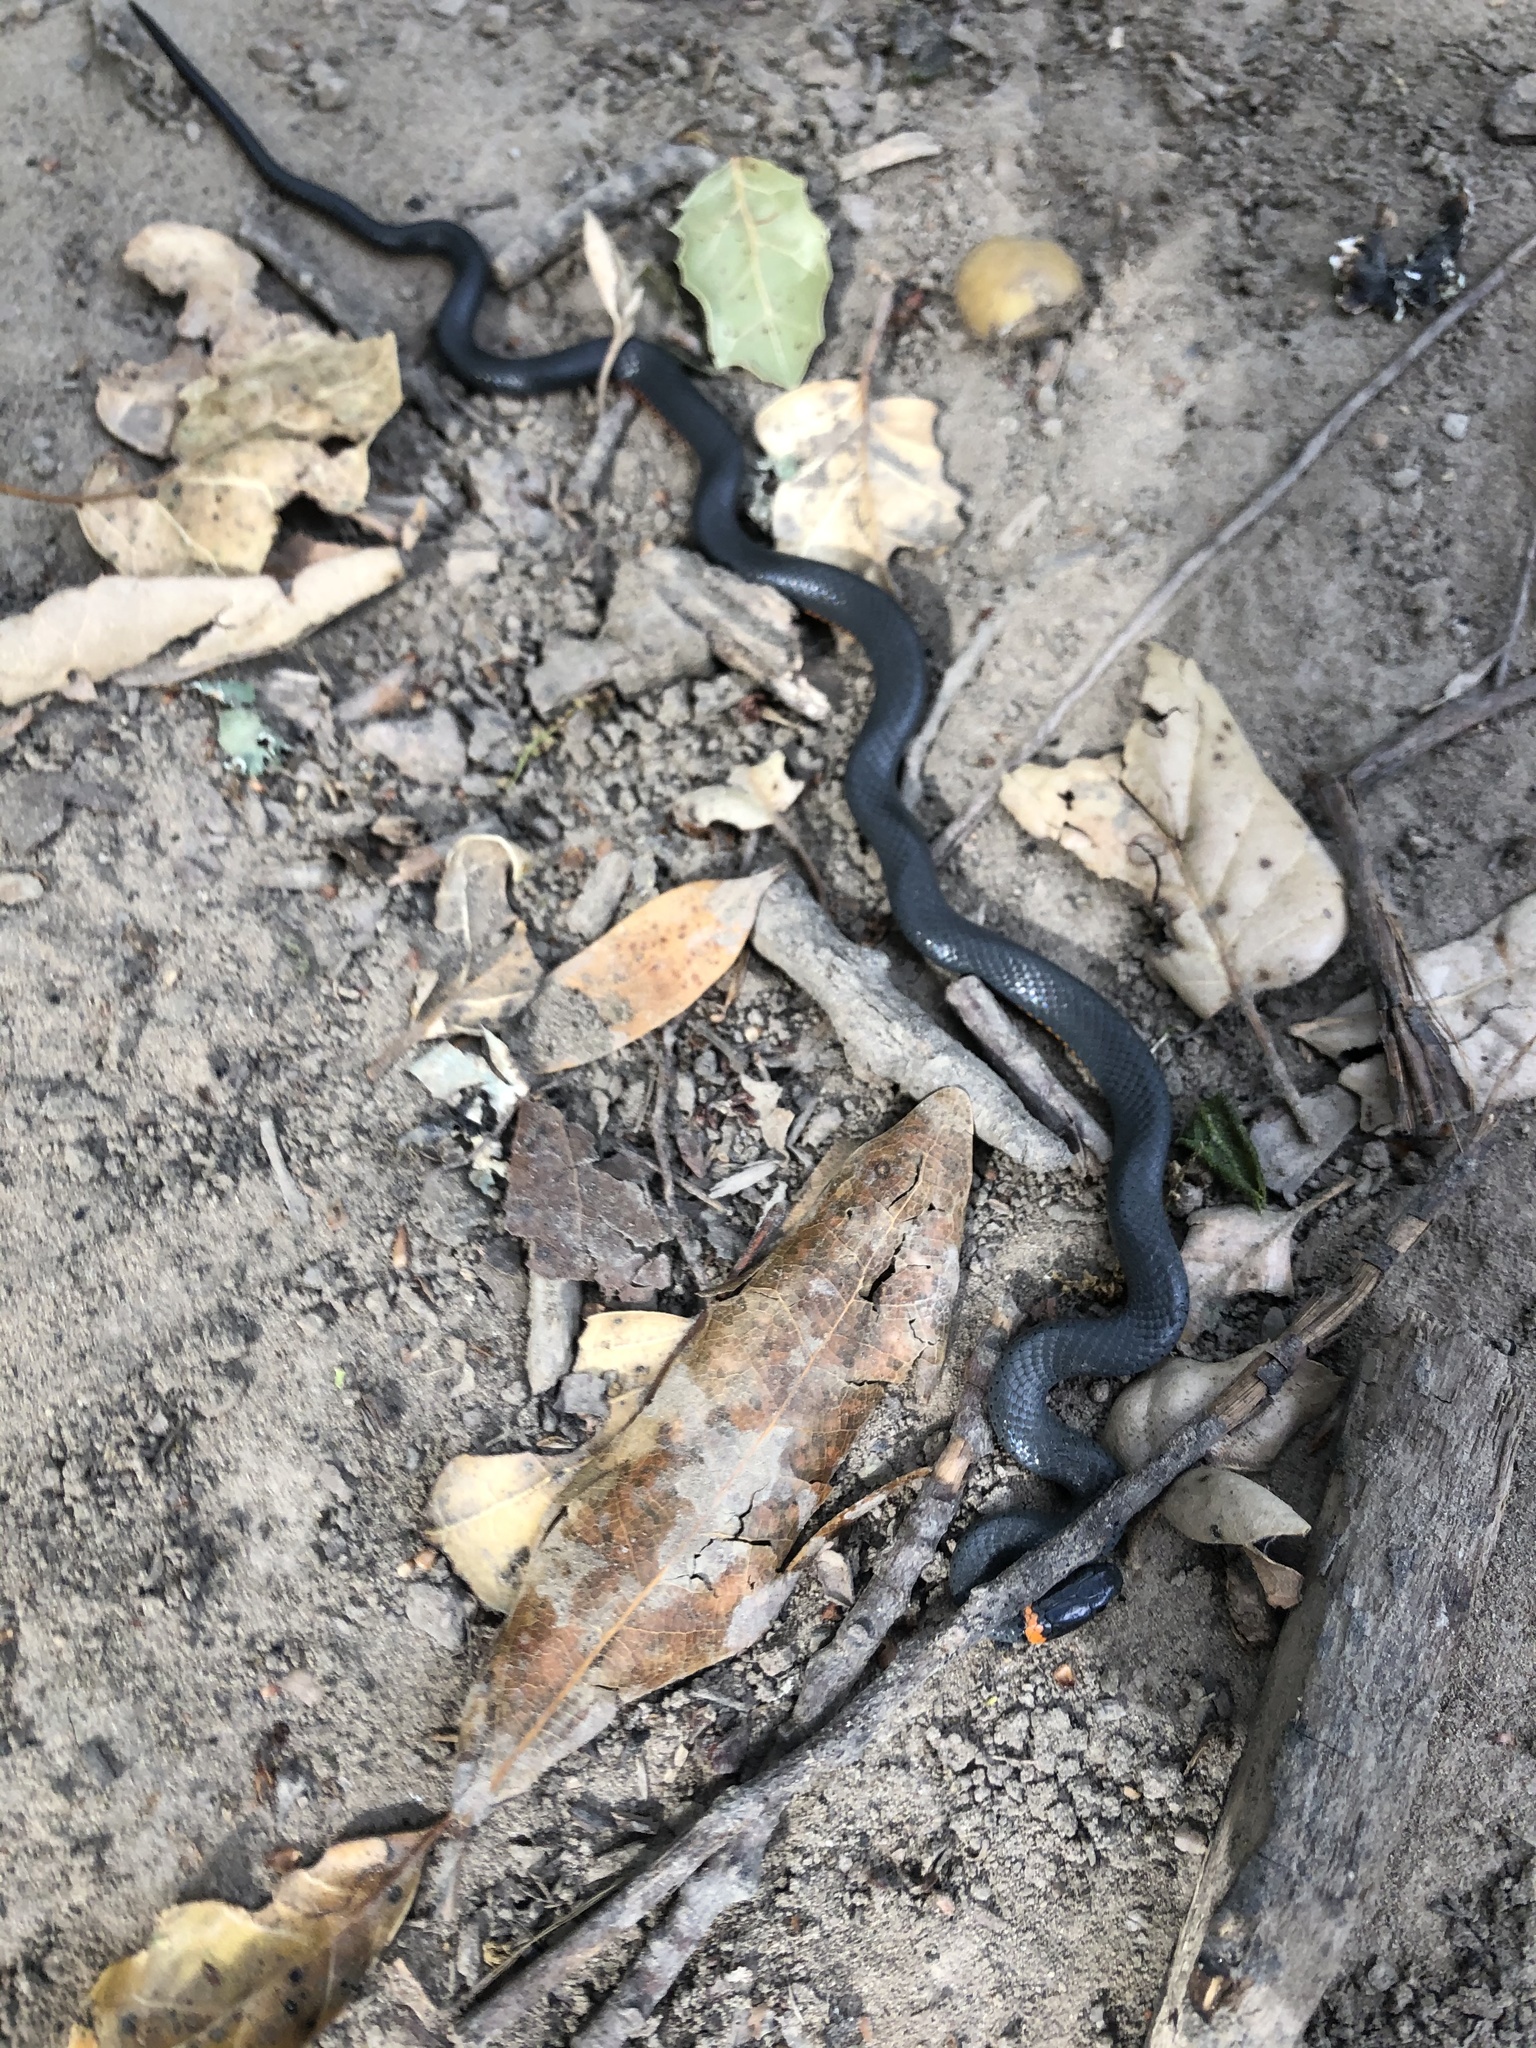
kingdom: Animalia
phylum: Chordata
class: Squamata
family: Colubridae
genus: Diadophis
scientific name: Diadophis punctatus
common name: Ringneck snake
